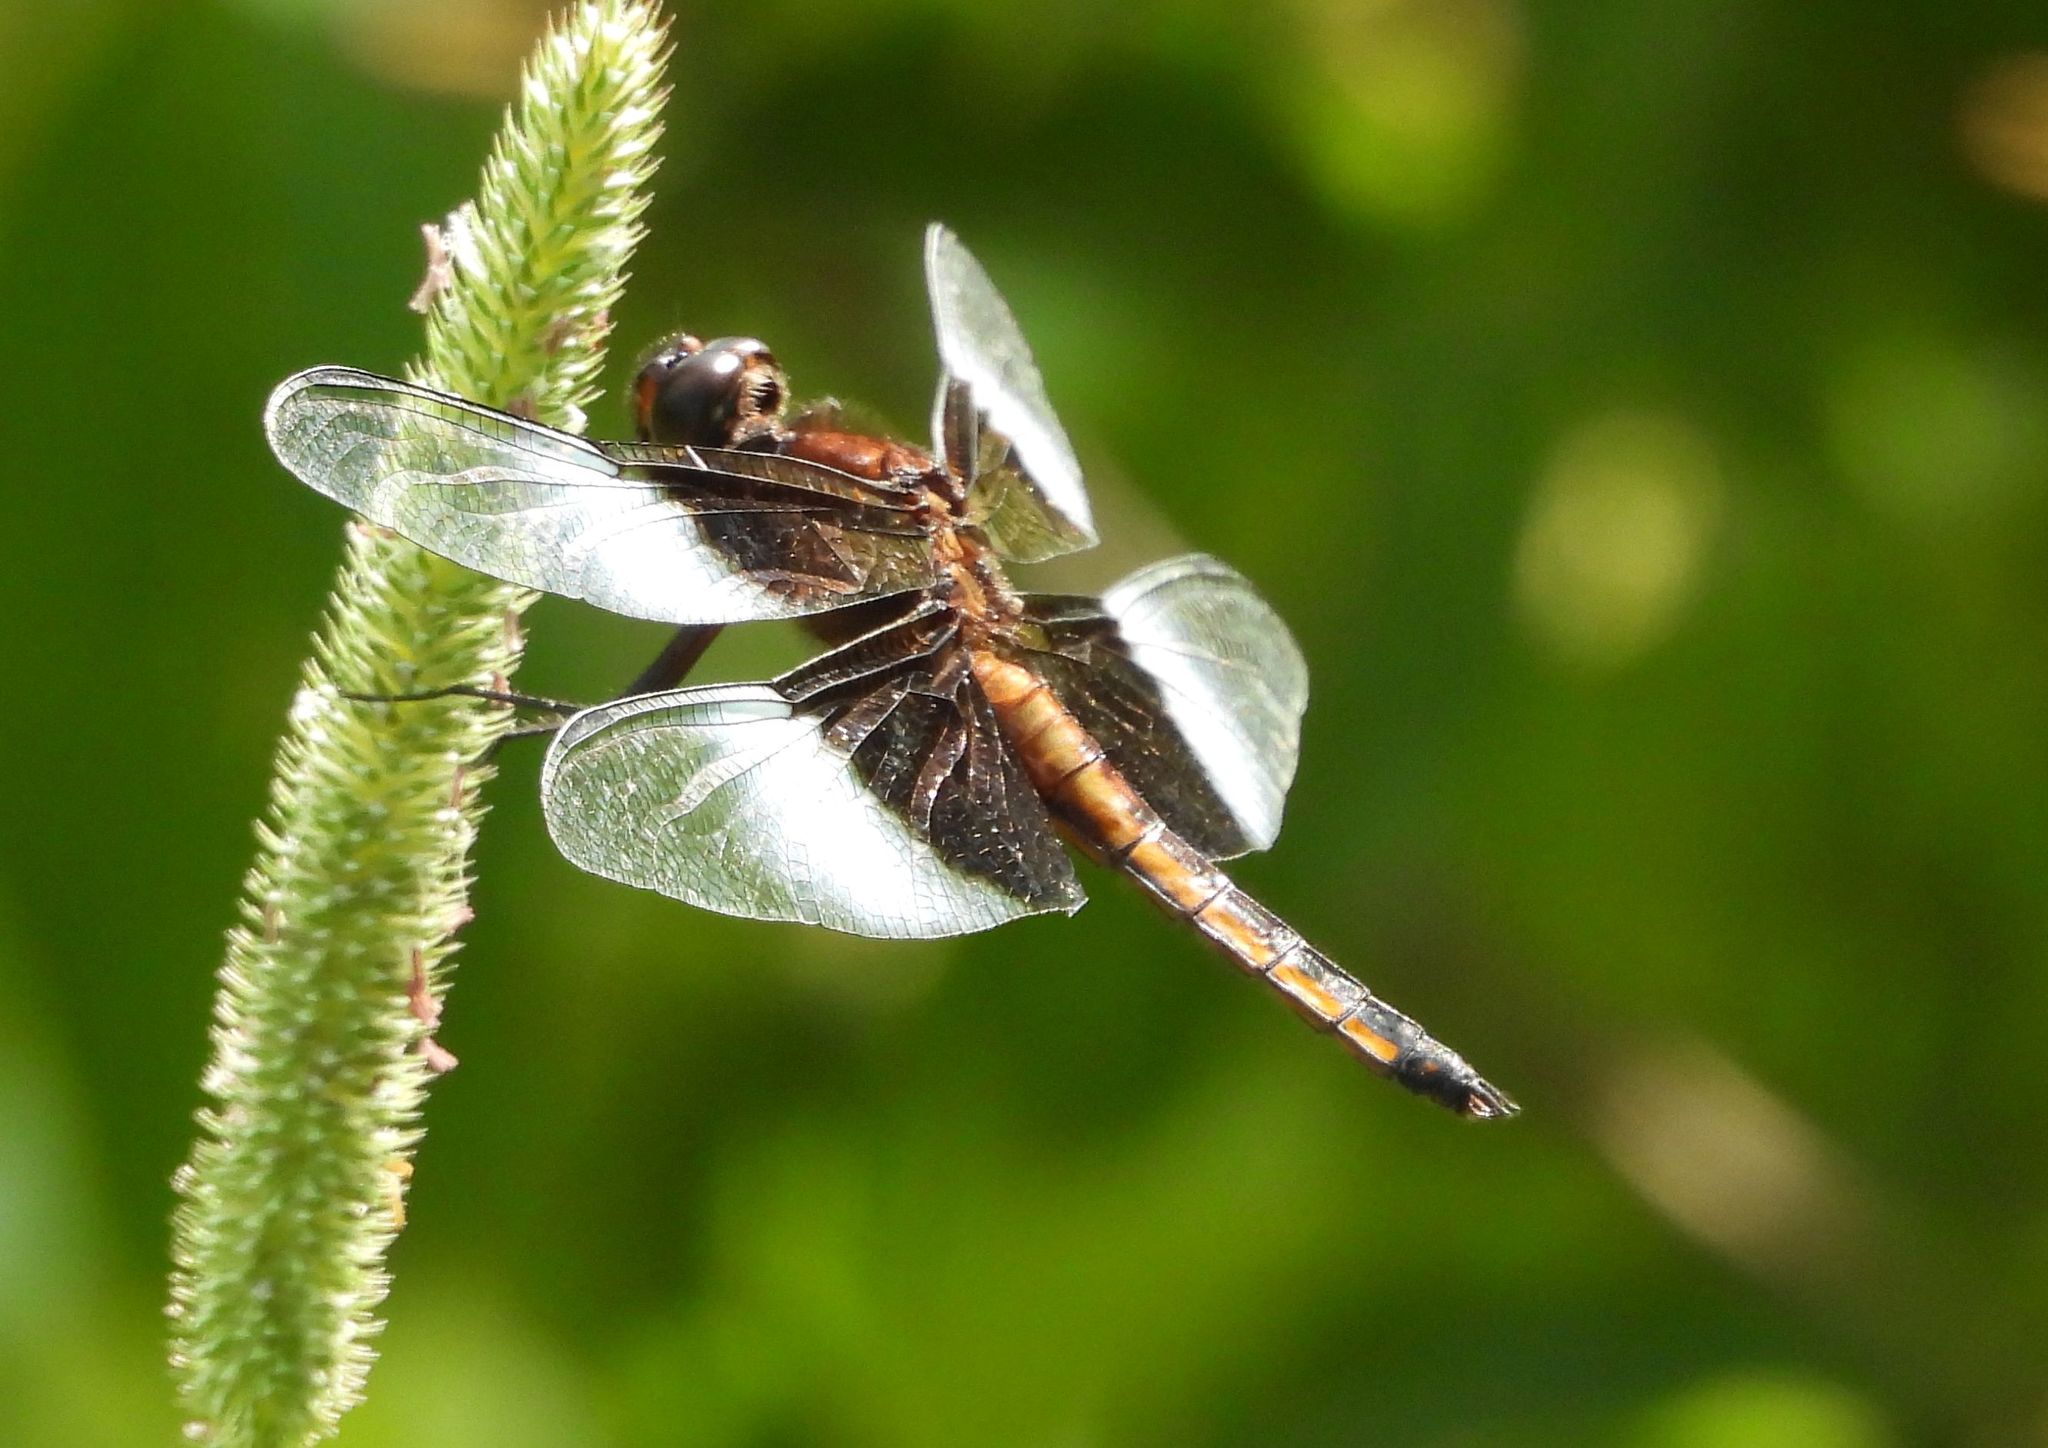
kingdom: Animalia
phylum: Arthropoda
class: Insecta
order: Odonata
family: Libellulidae
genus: Libellula
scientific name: Libellula luctuosa
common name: Widow skimmer
